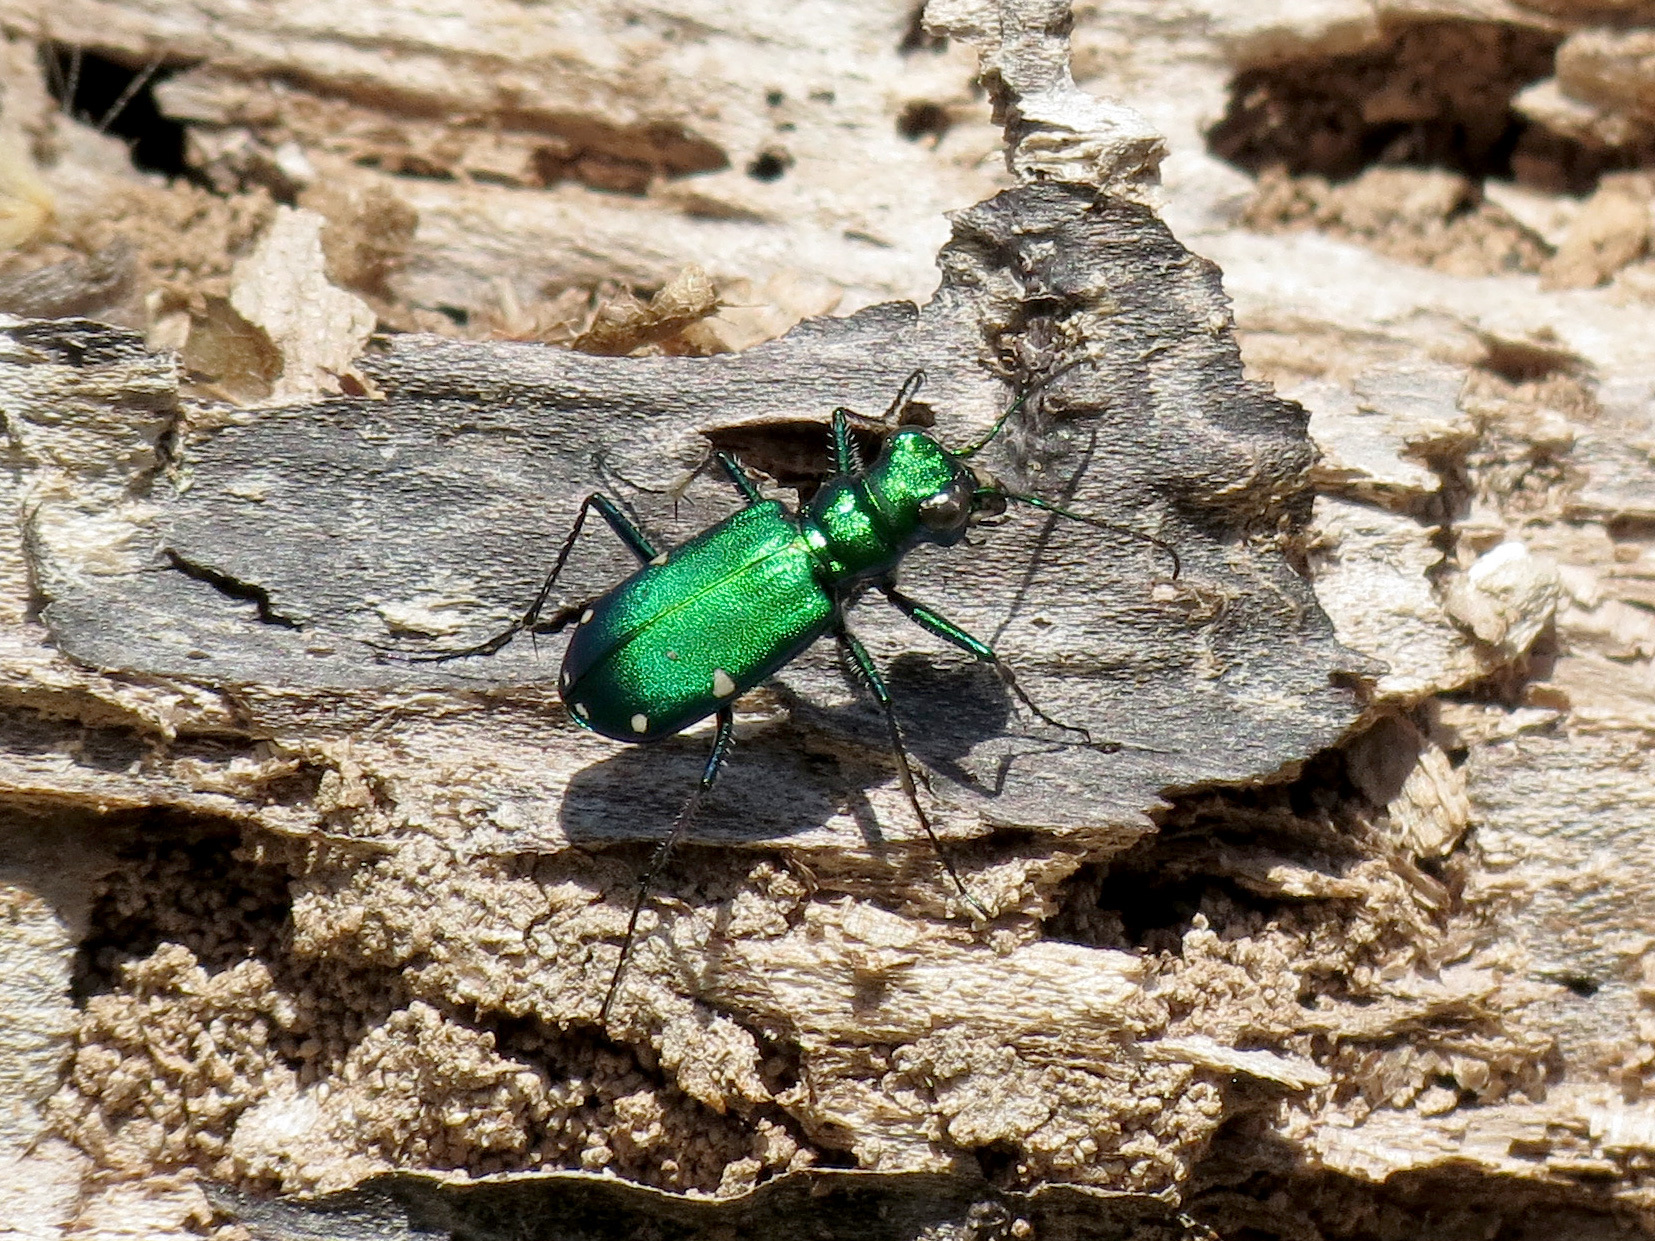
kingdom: Animalia
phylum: Arthropoda
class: Insecta
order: Coleoptera
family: Carabidae
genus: Cicindela
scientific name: Cicindela sexguttata
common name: Six-spotted tiger beetle
